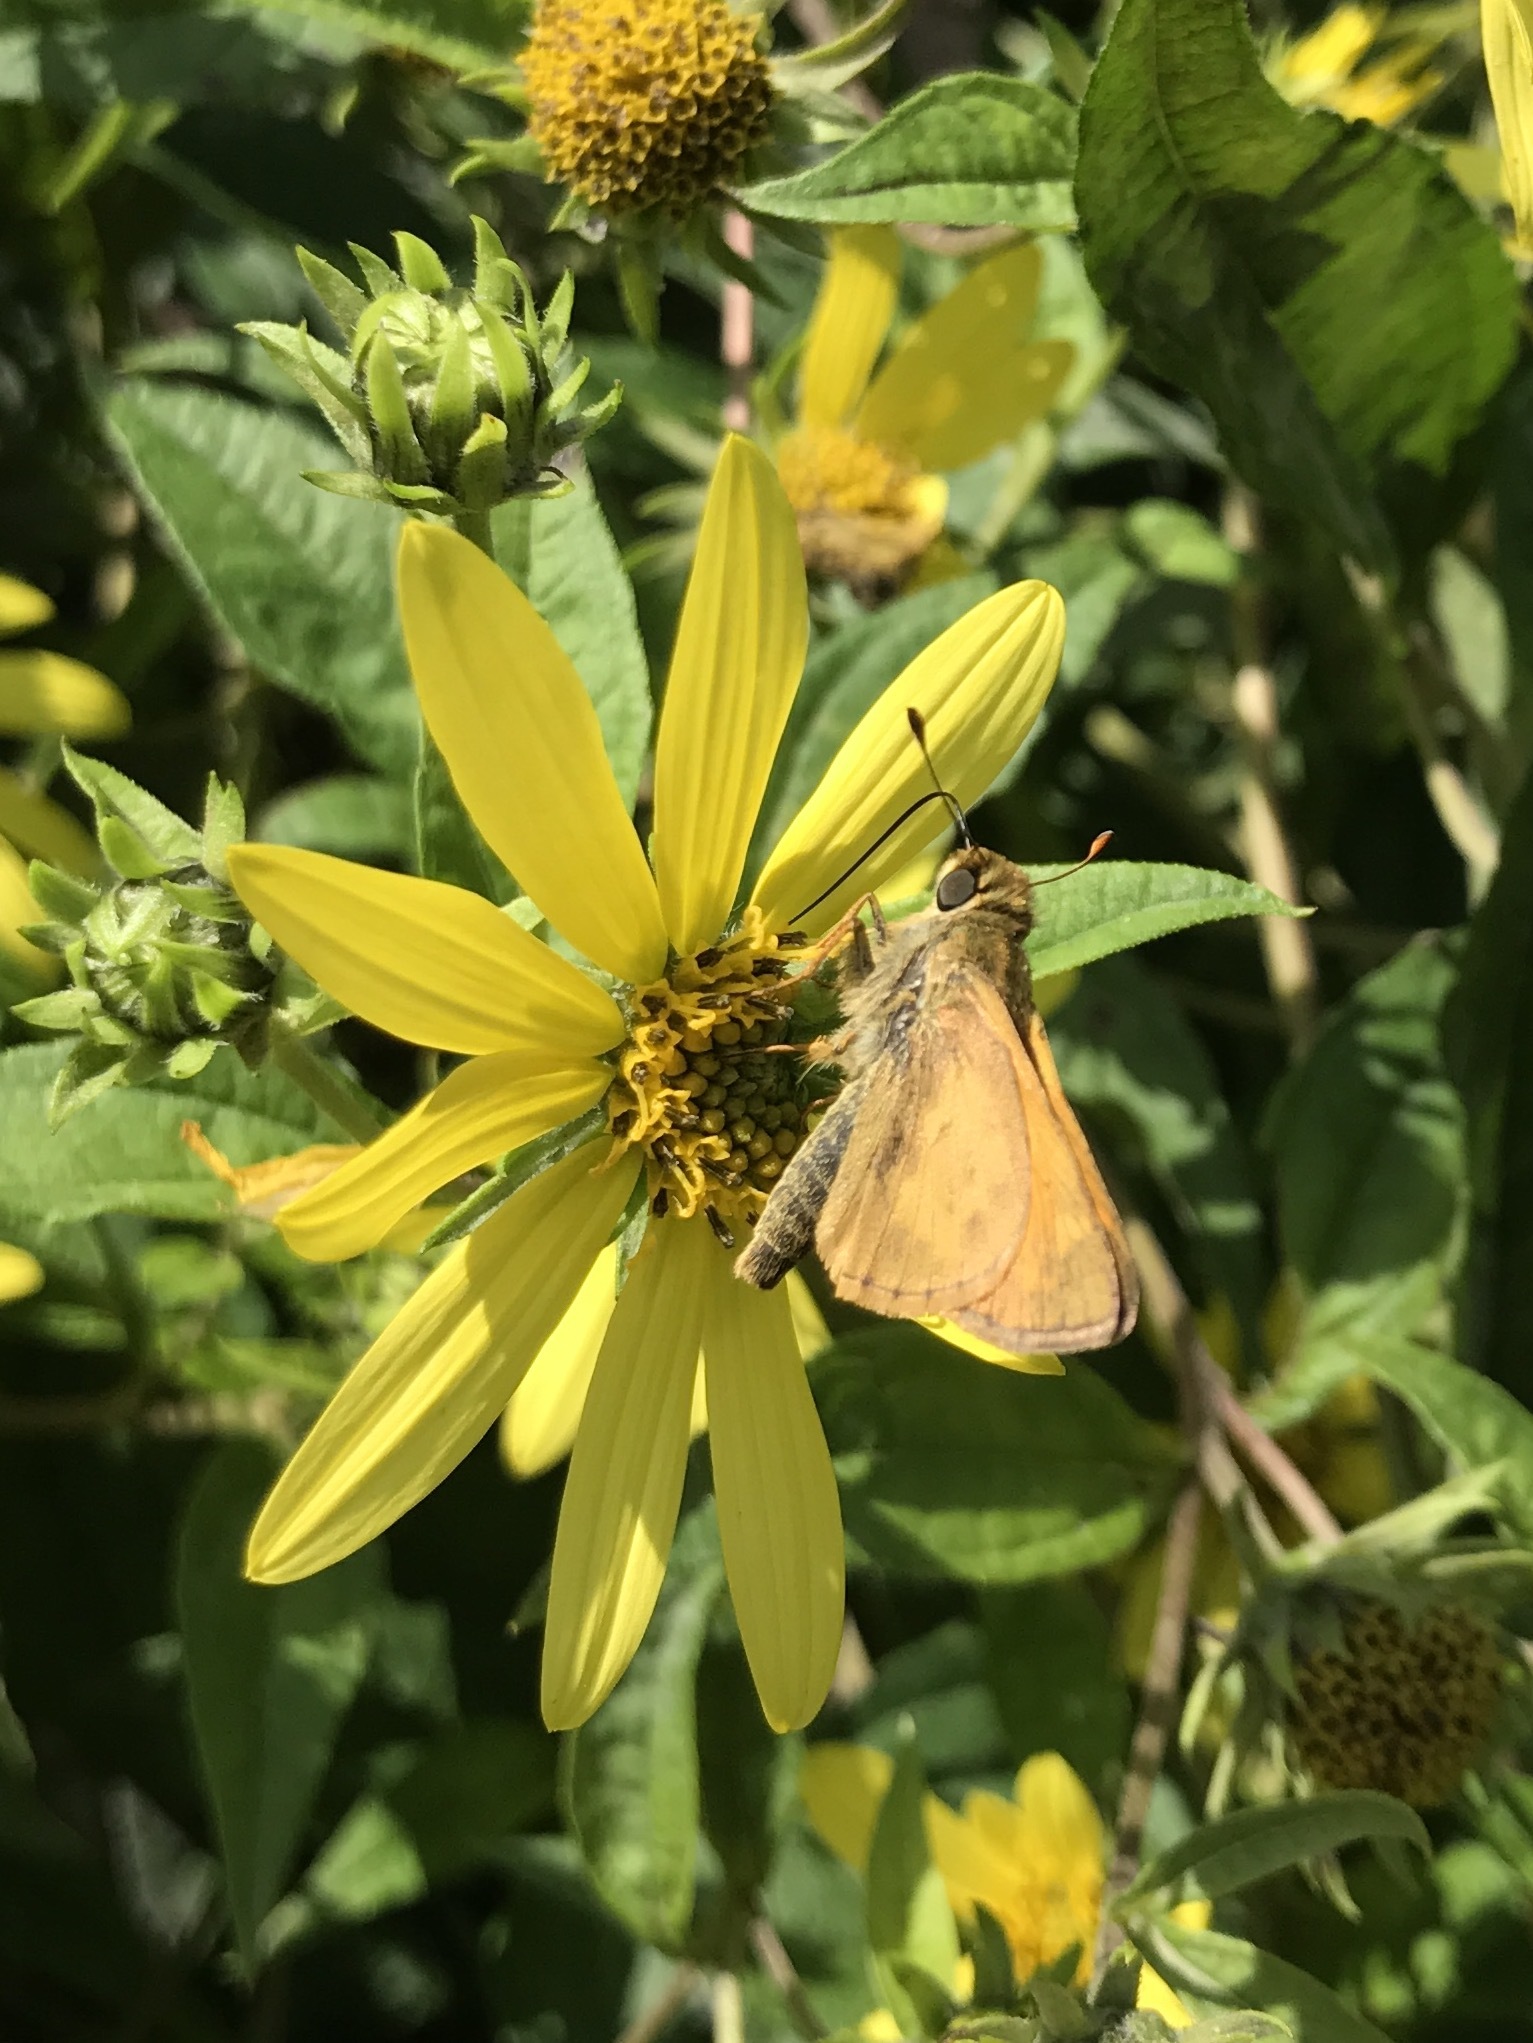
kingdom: Animalia
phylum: Arthropoda
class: Insecta
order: Lepidoptera
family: Hesperiidae
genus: Atalopedes
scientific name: Atalopedes
